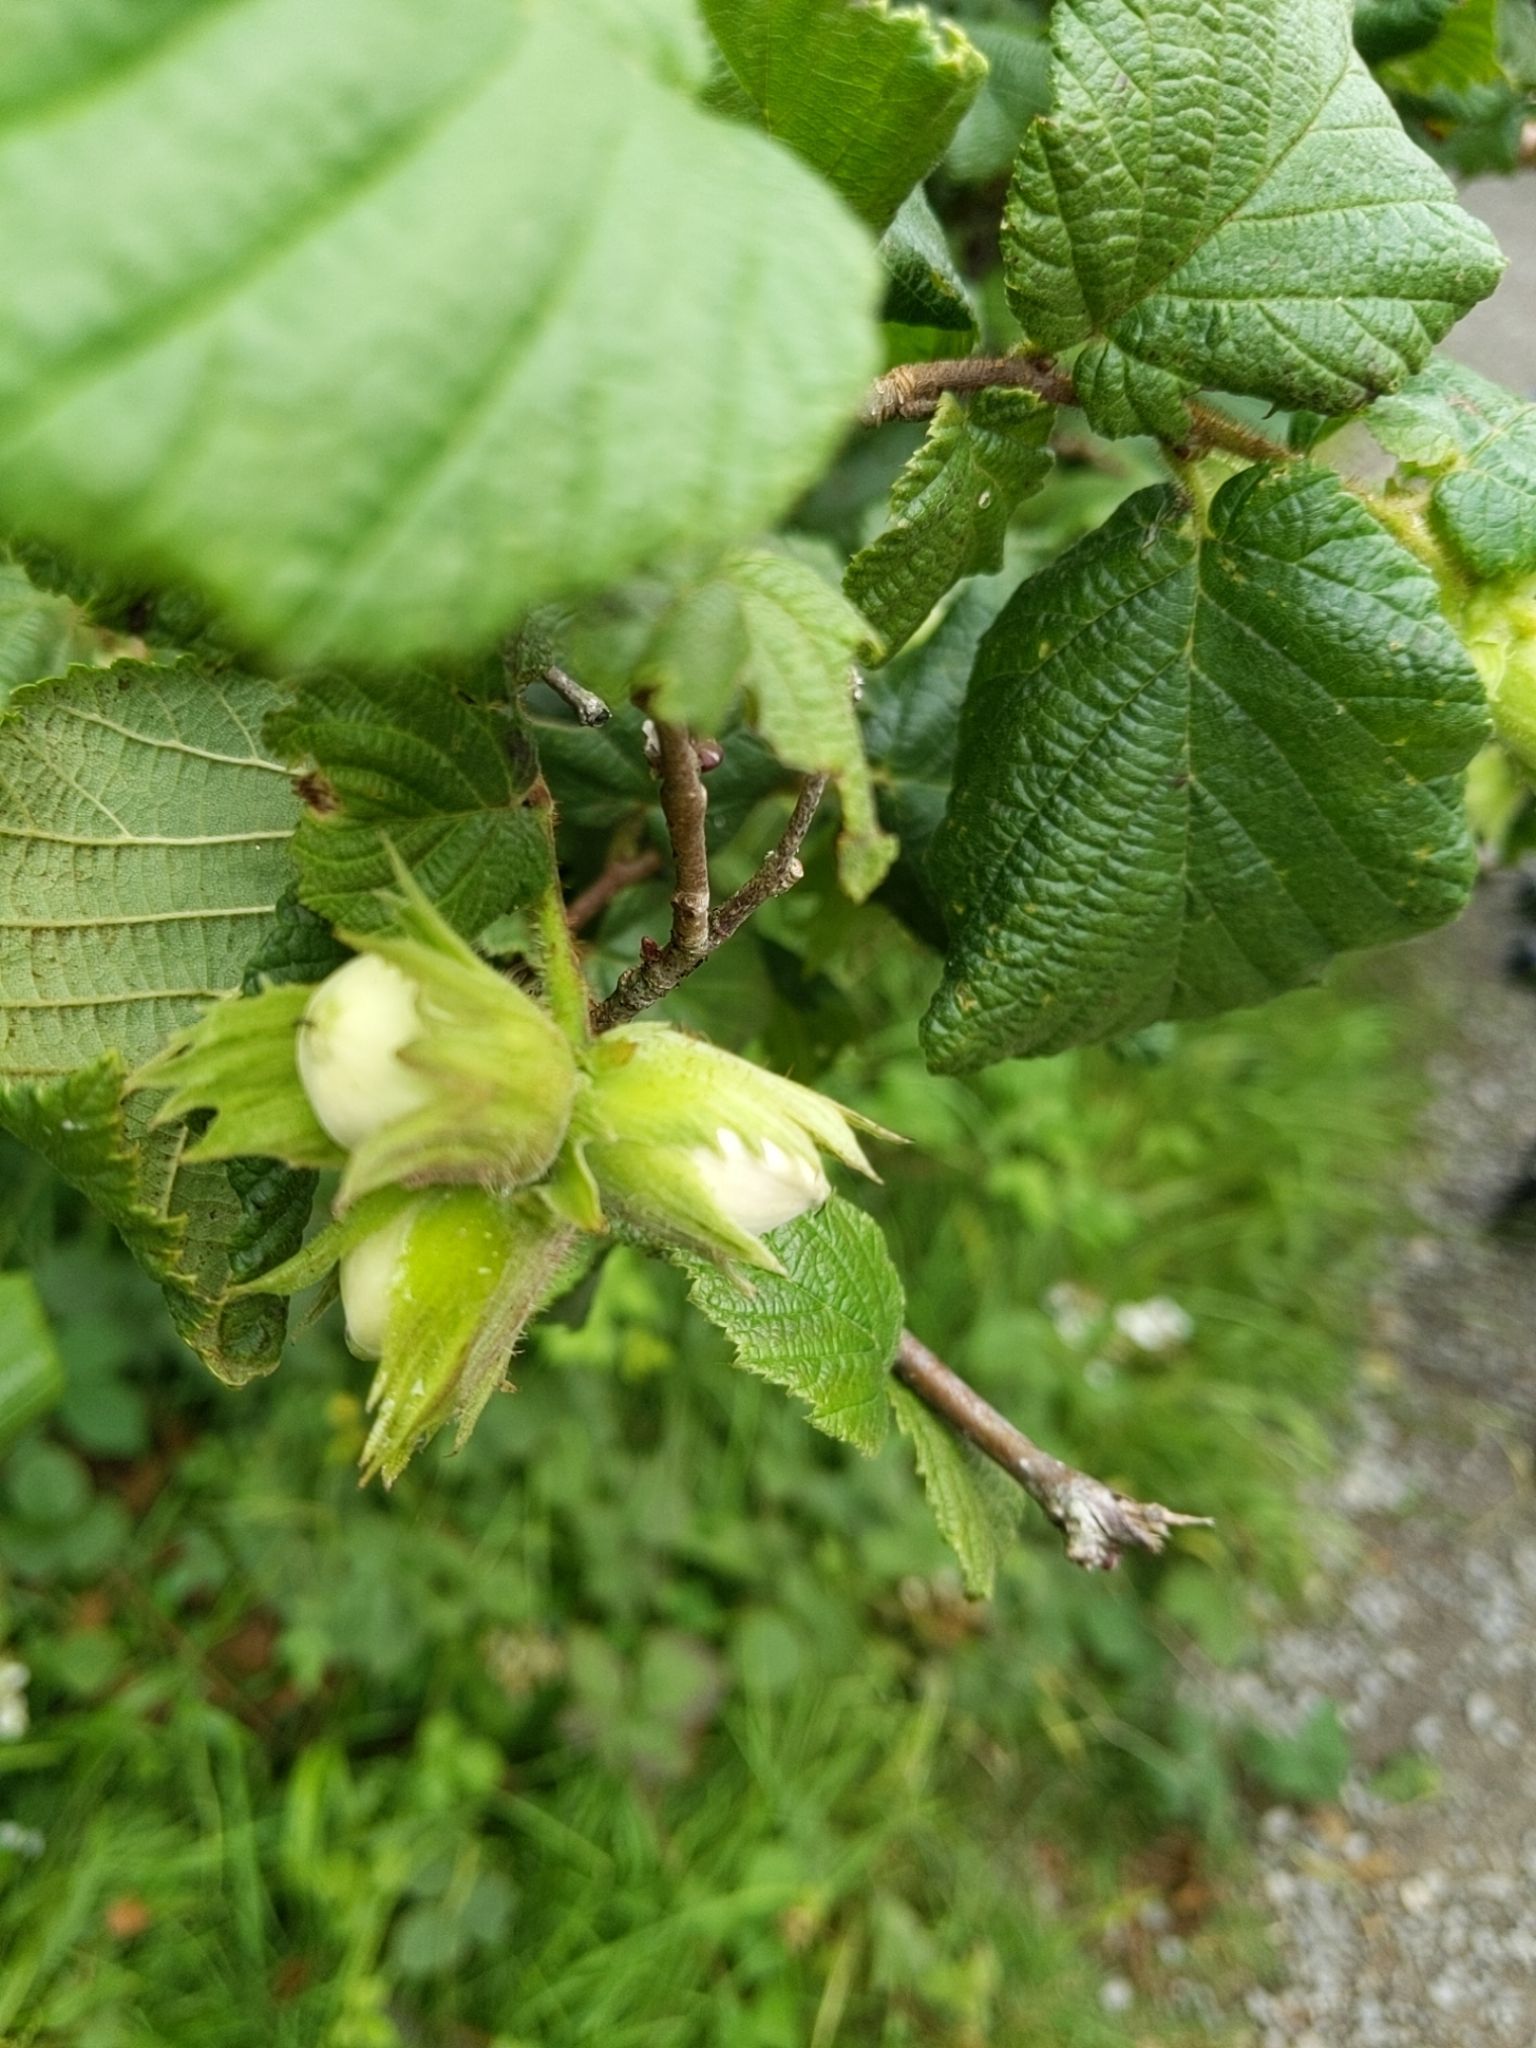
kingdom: Plantae
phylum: Tracheophyta
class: Magnoliopsida
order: Fagales
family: Betulaceae
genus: Corylus
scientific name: Corylus avellana
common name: European hazel
